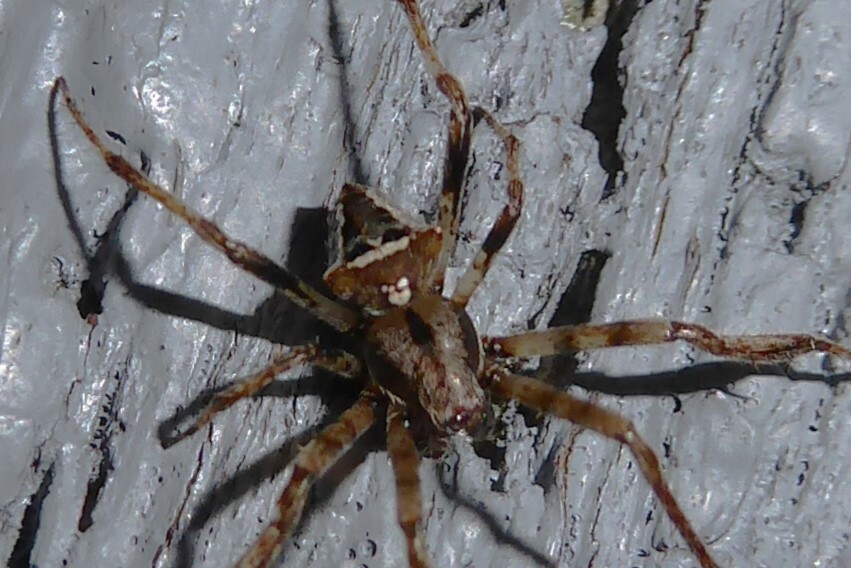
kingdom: Animalia
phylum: Arthropoda
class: Arachnida
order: Araneae
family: Araneidae
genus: Novakiella
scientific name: Novakiella trituberculosa
